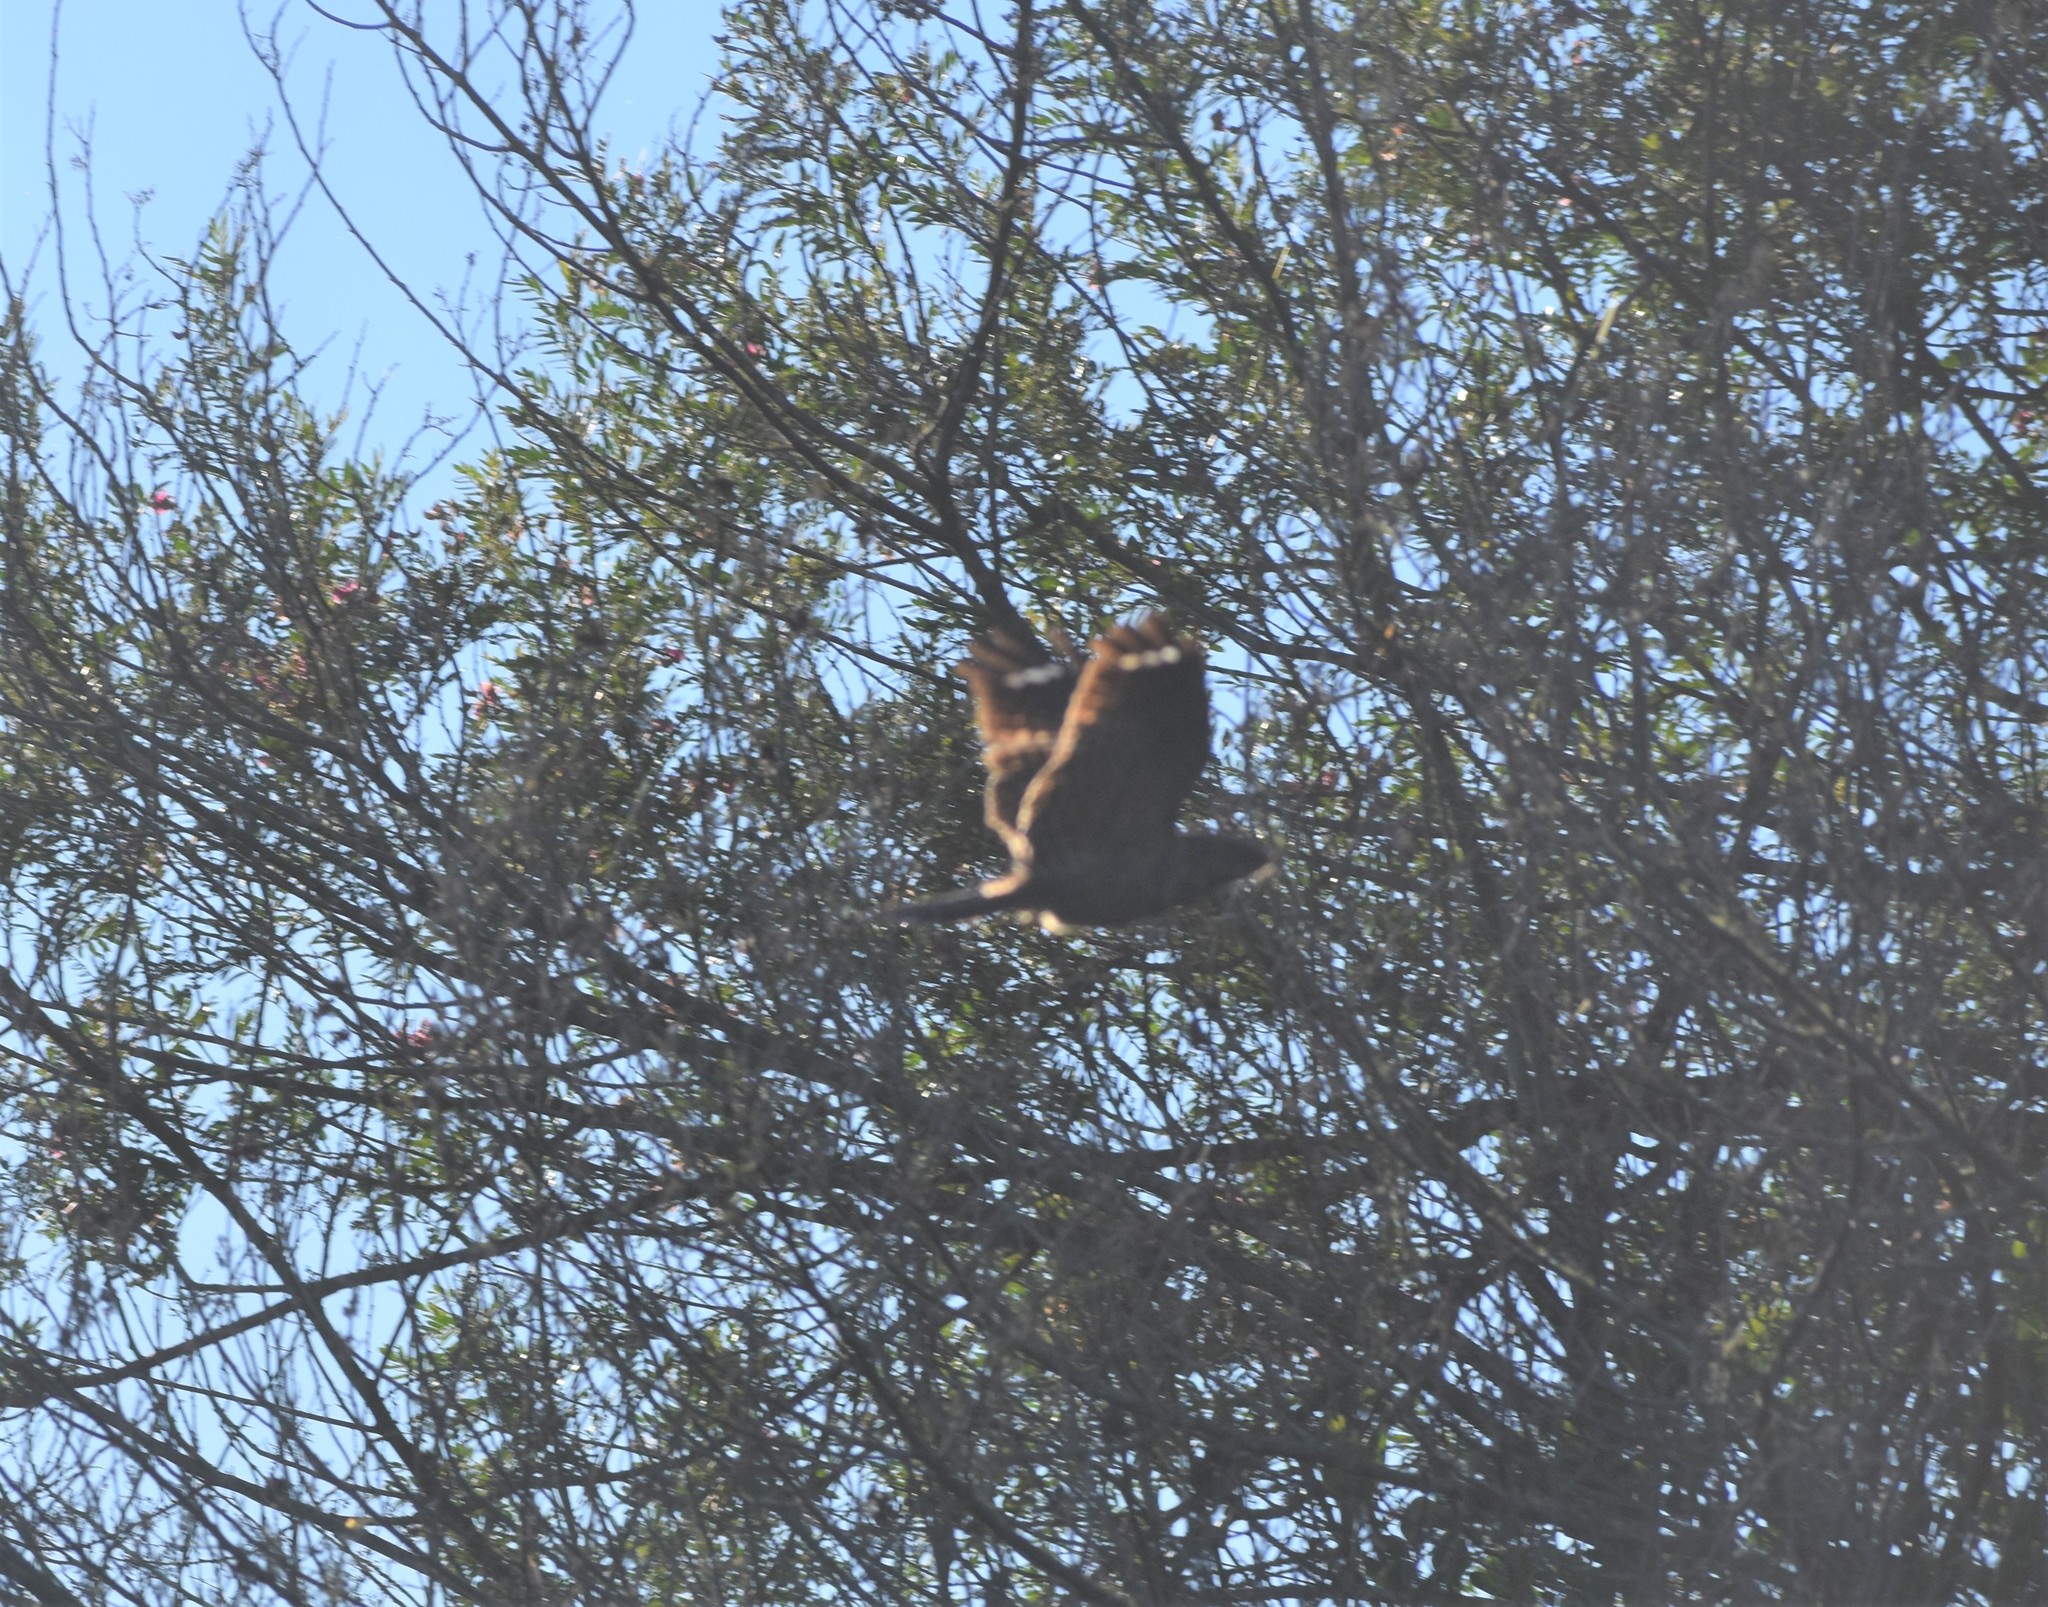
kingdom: Animalia
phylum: Chordata
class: Aves
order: Caprimulgiformes
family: Caprimulgidae
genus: Caprimulgus
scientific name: Caprimulgus pectoralis
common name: Fiery-necked nightjar
